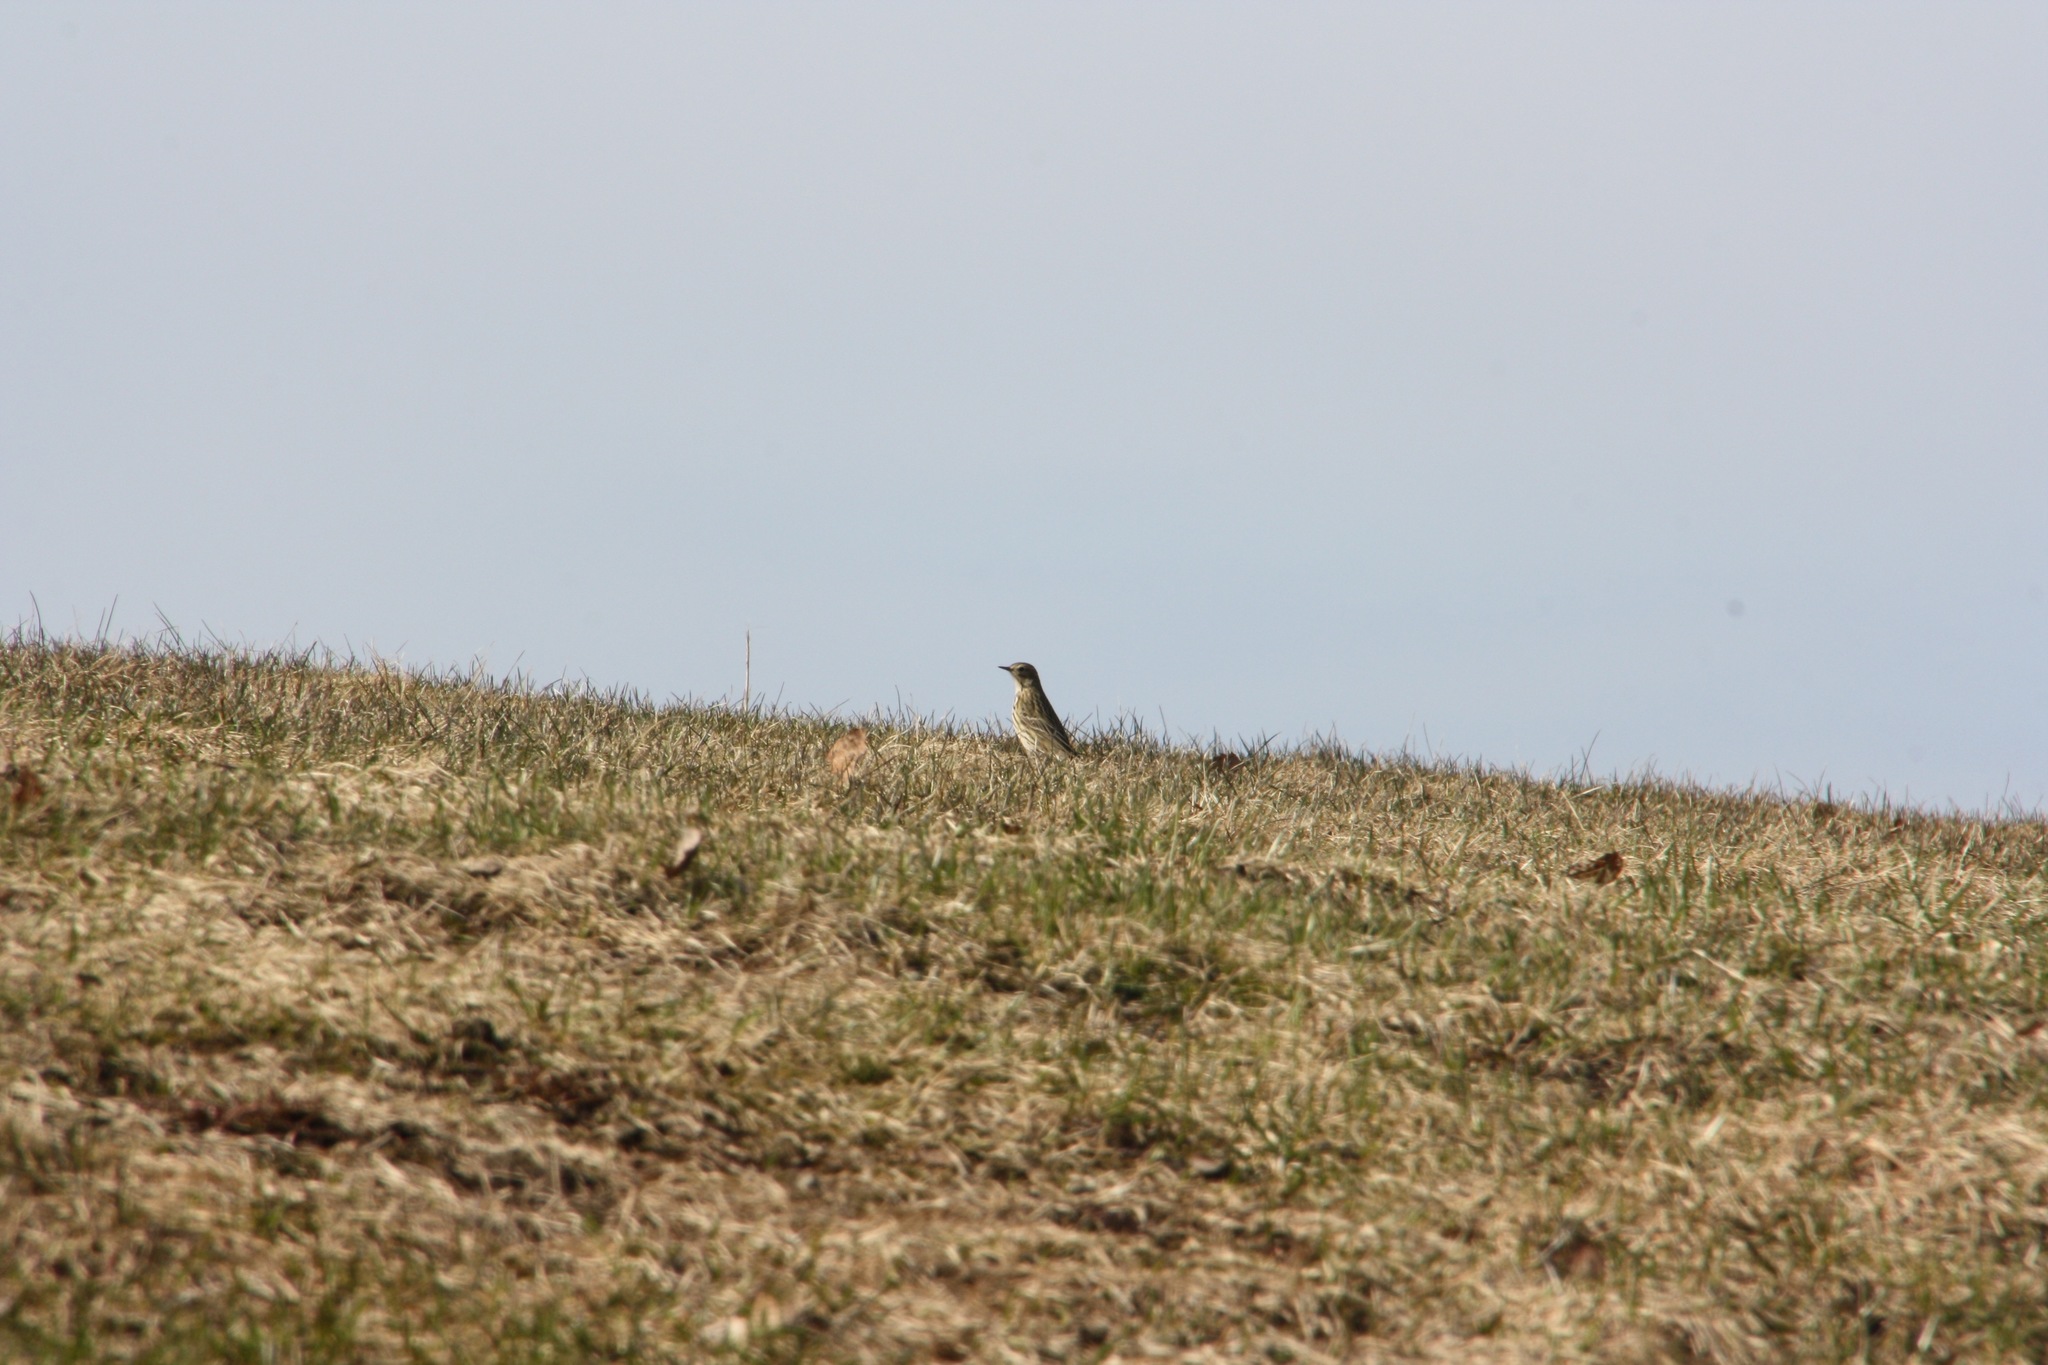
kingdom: Animalia
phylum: Chordata
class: Aves
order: Passeriformes
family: Motacillidae
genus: Anthus
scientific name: Anthus pratensis
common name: Meadow pipit
